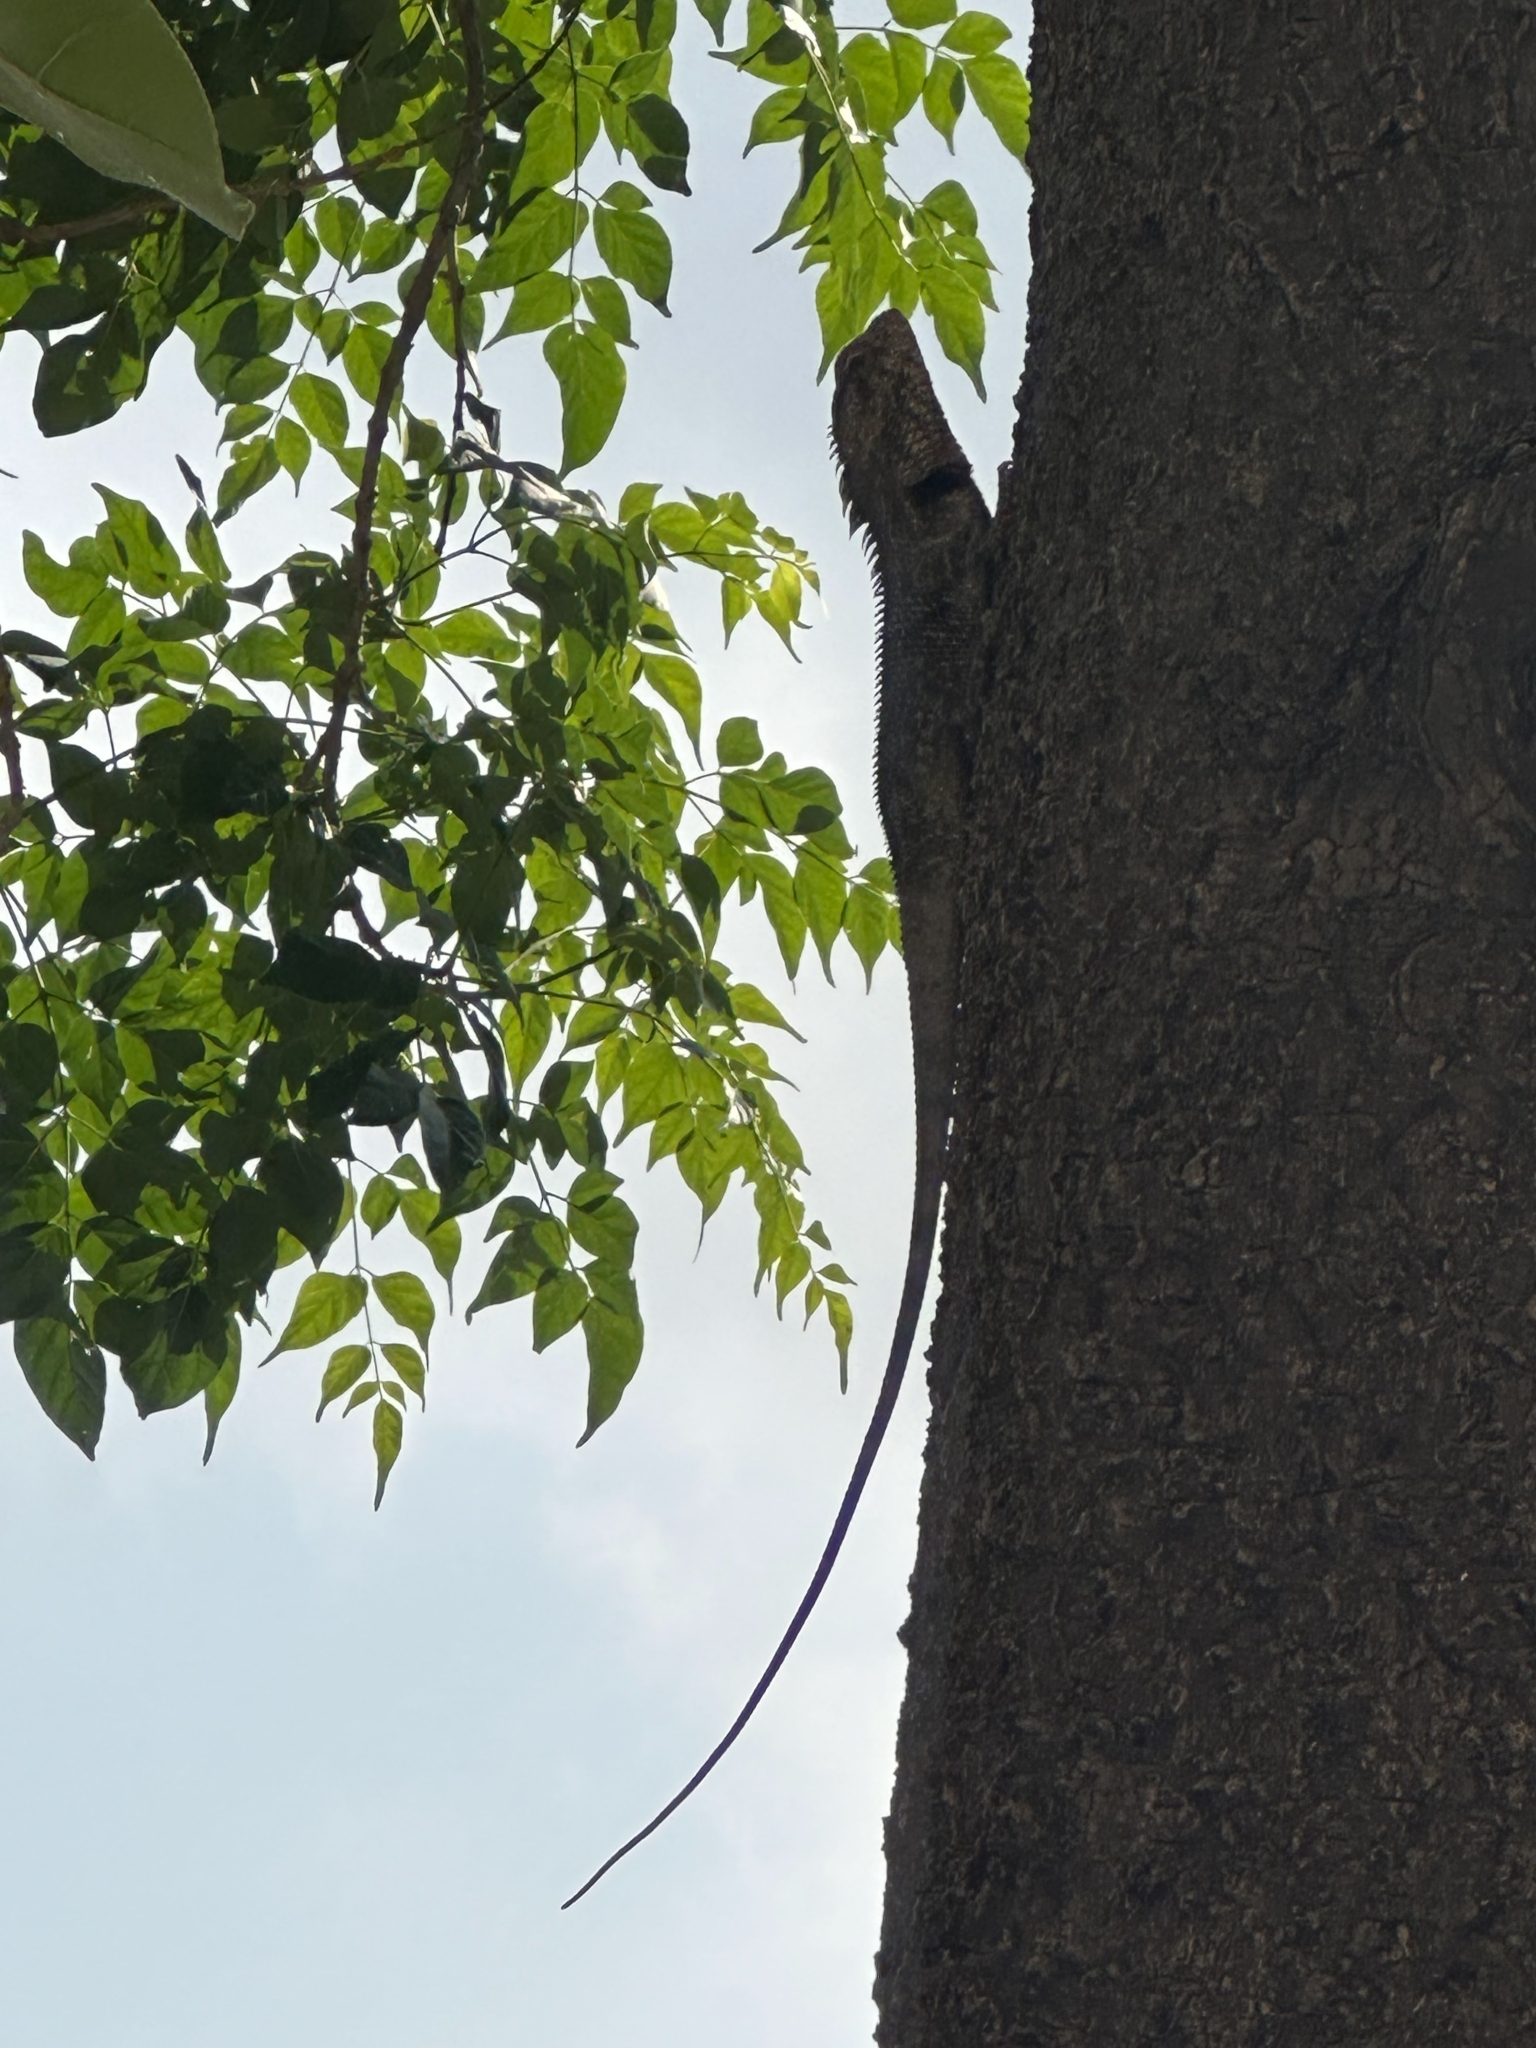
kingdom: Animalia
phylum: Chordata
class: Squamata
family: Agamidae
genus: Calotes
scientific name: Calotes versicolor
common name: Oriental garden lizard
